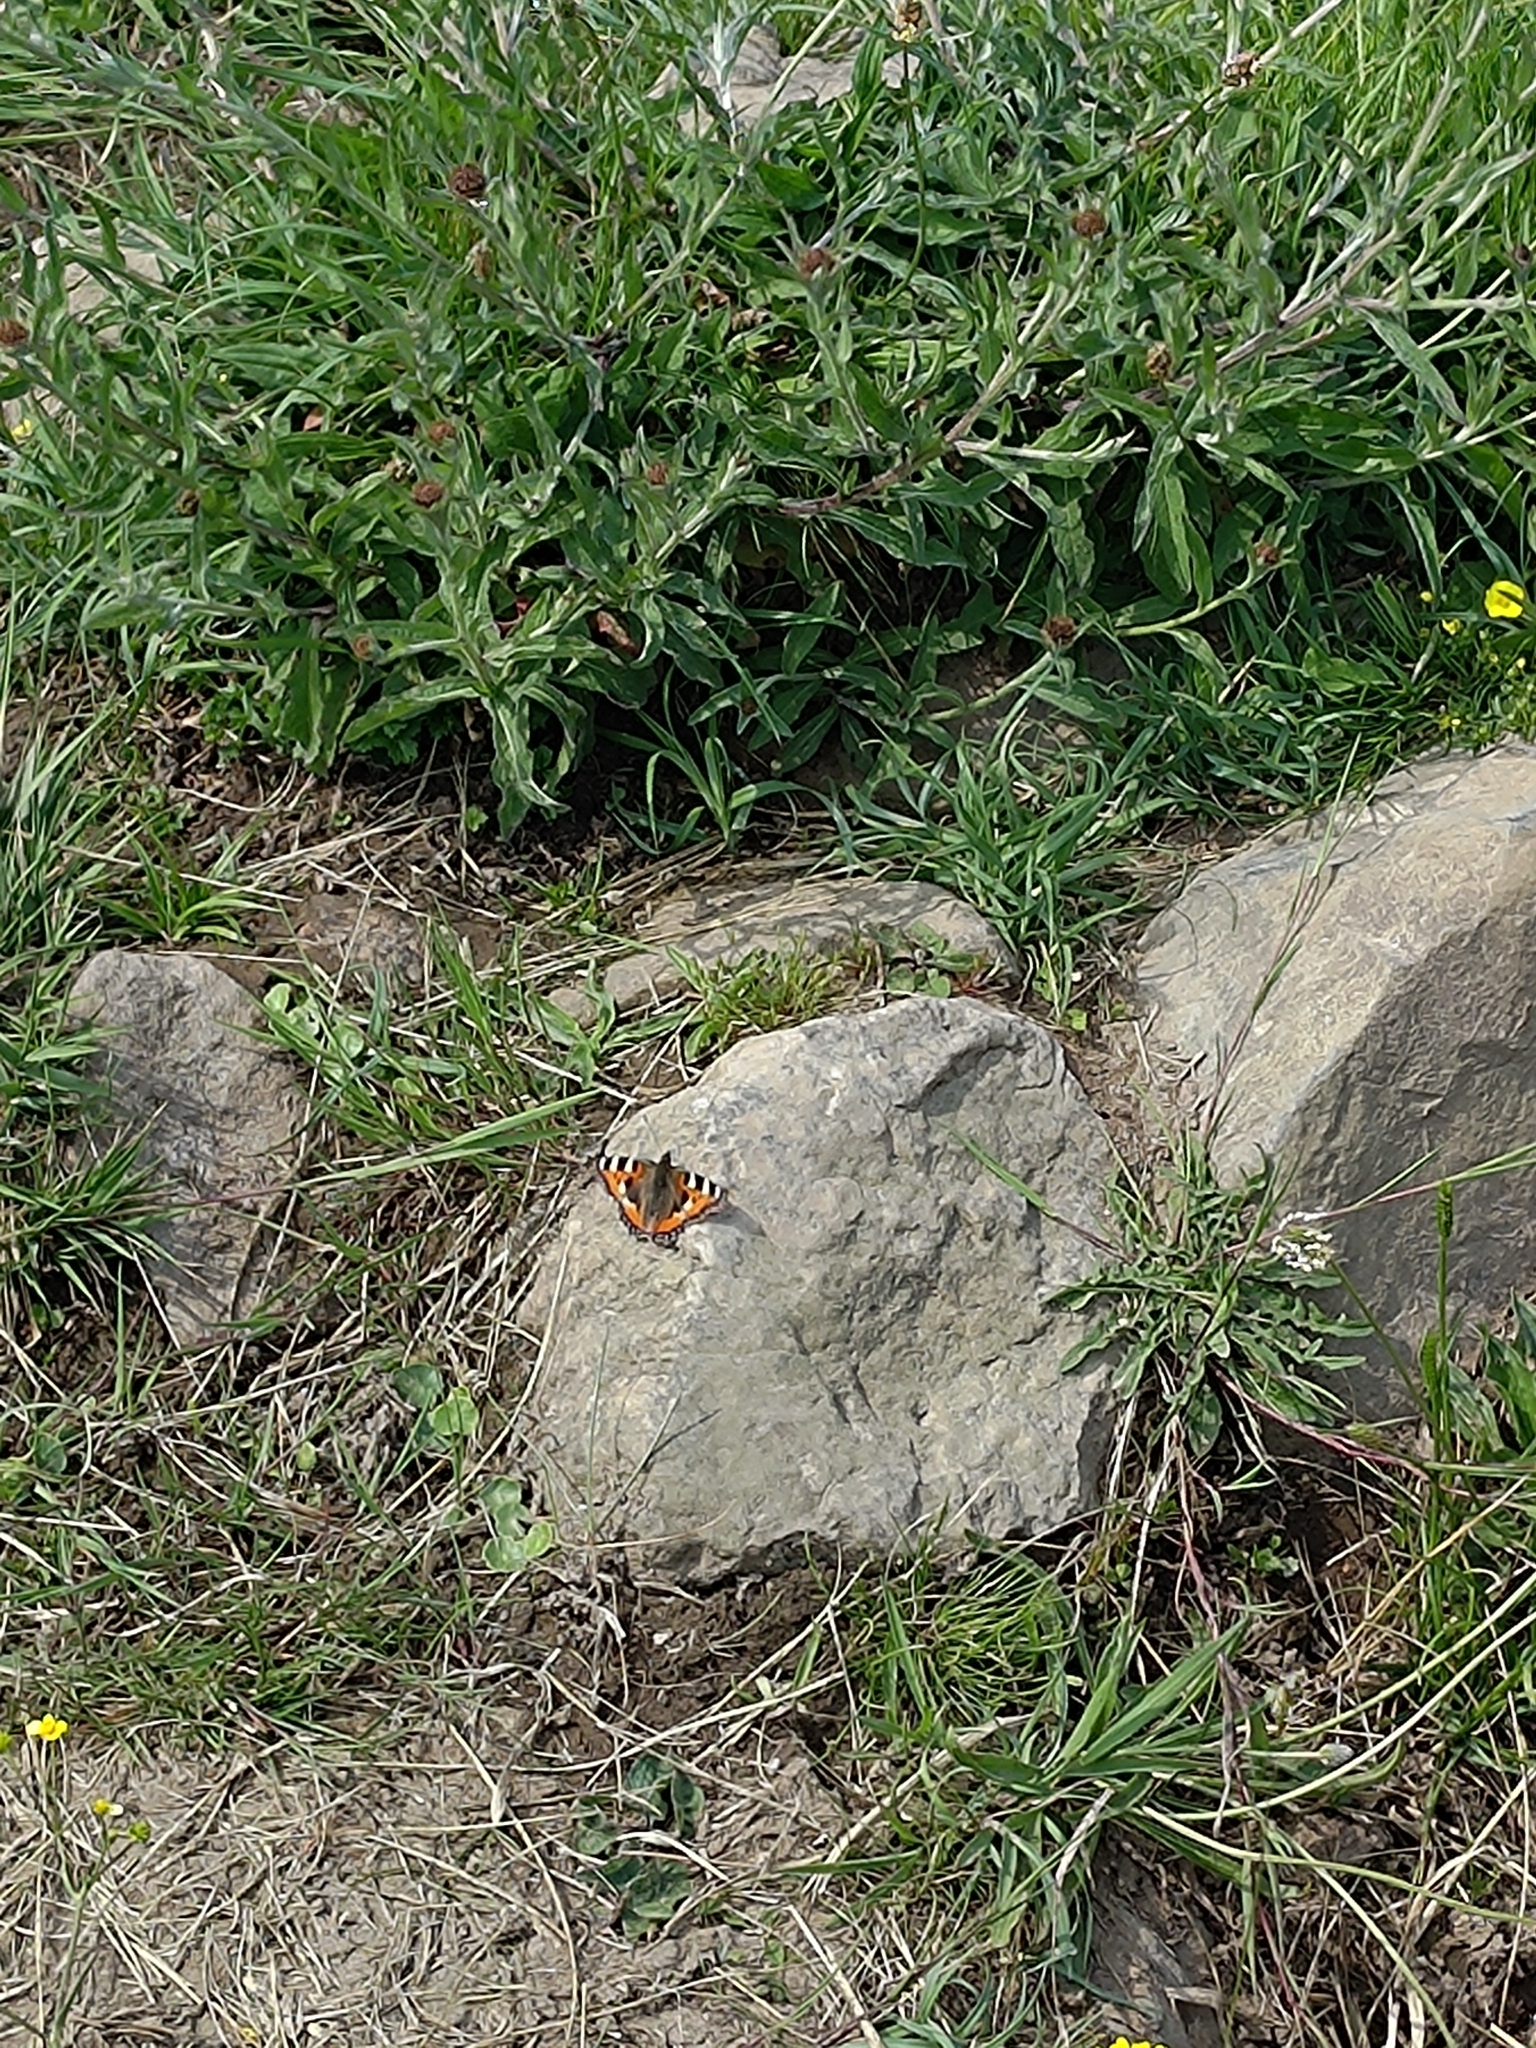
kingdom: Animalia
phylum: Arthropoda
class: Insecta
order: Lepidoptera
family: Nymphalidae
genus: Aglais
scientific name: Aglais urticae
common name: Small tortoiseshell
